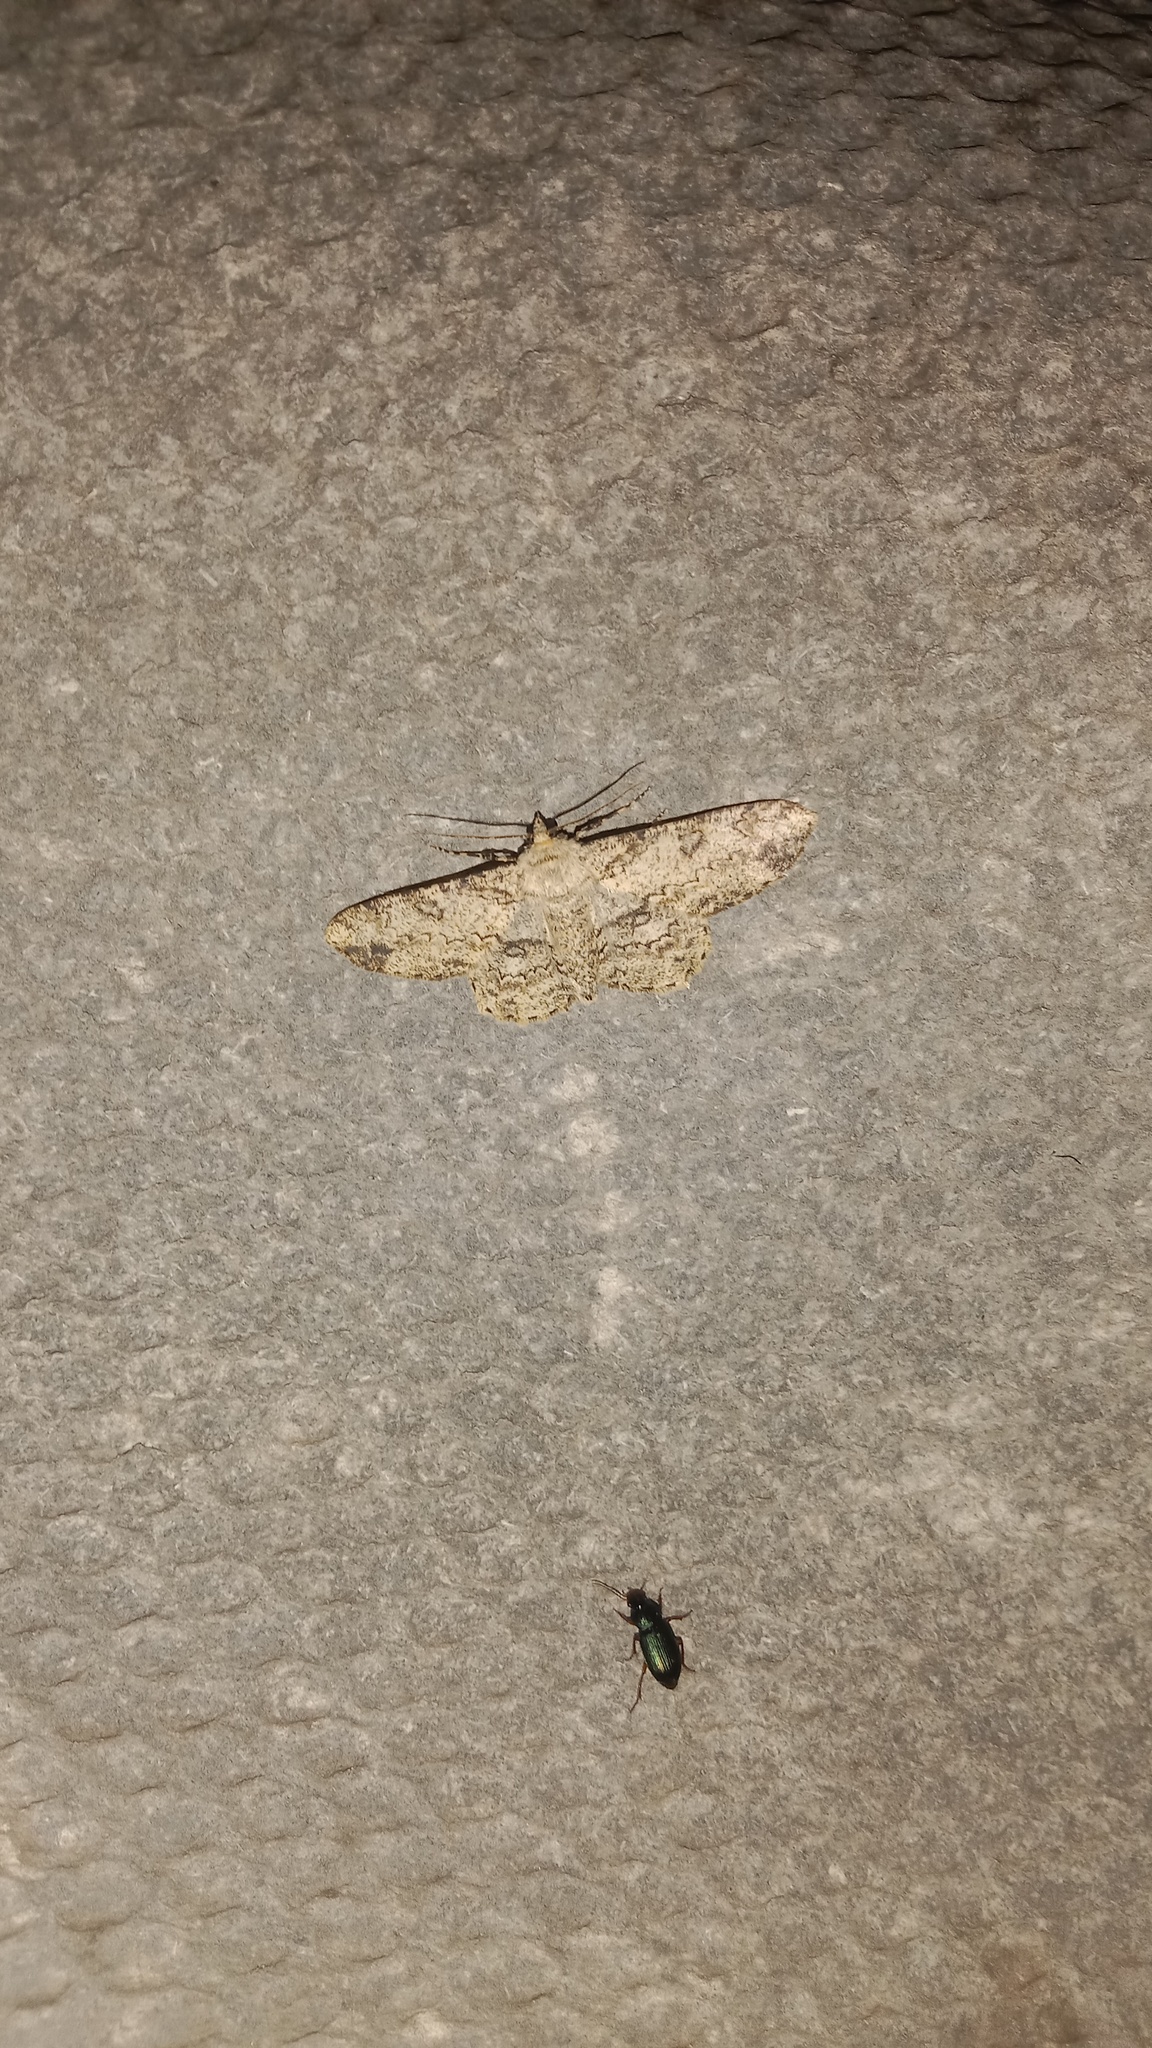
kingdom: Animalia
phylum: Arthropoda
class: Insecta
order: Lepidoptera
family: Geometridae
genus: Ascotis
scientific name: Ascotis selenaria
